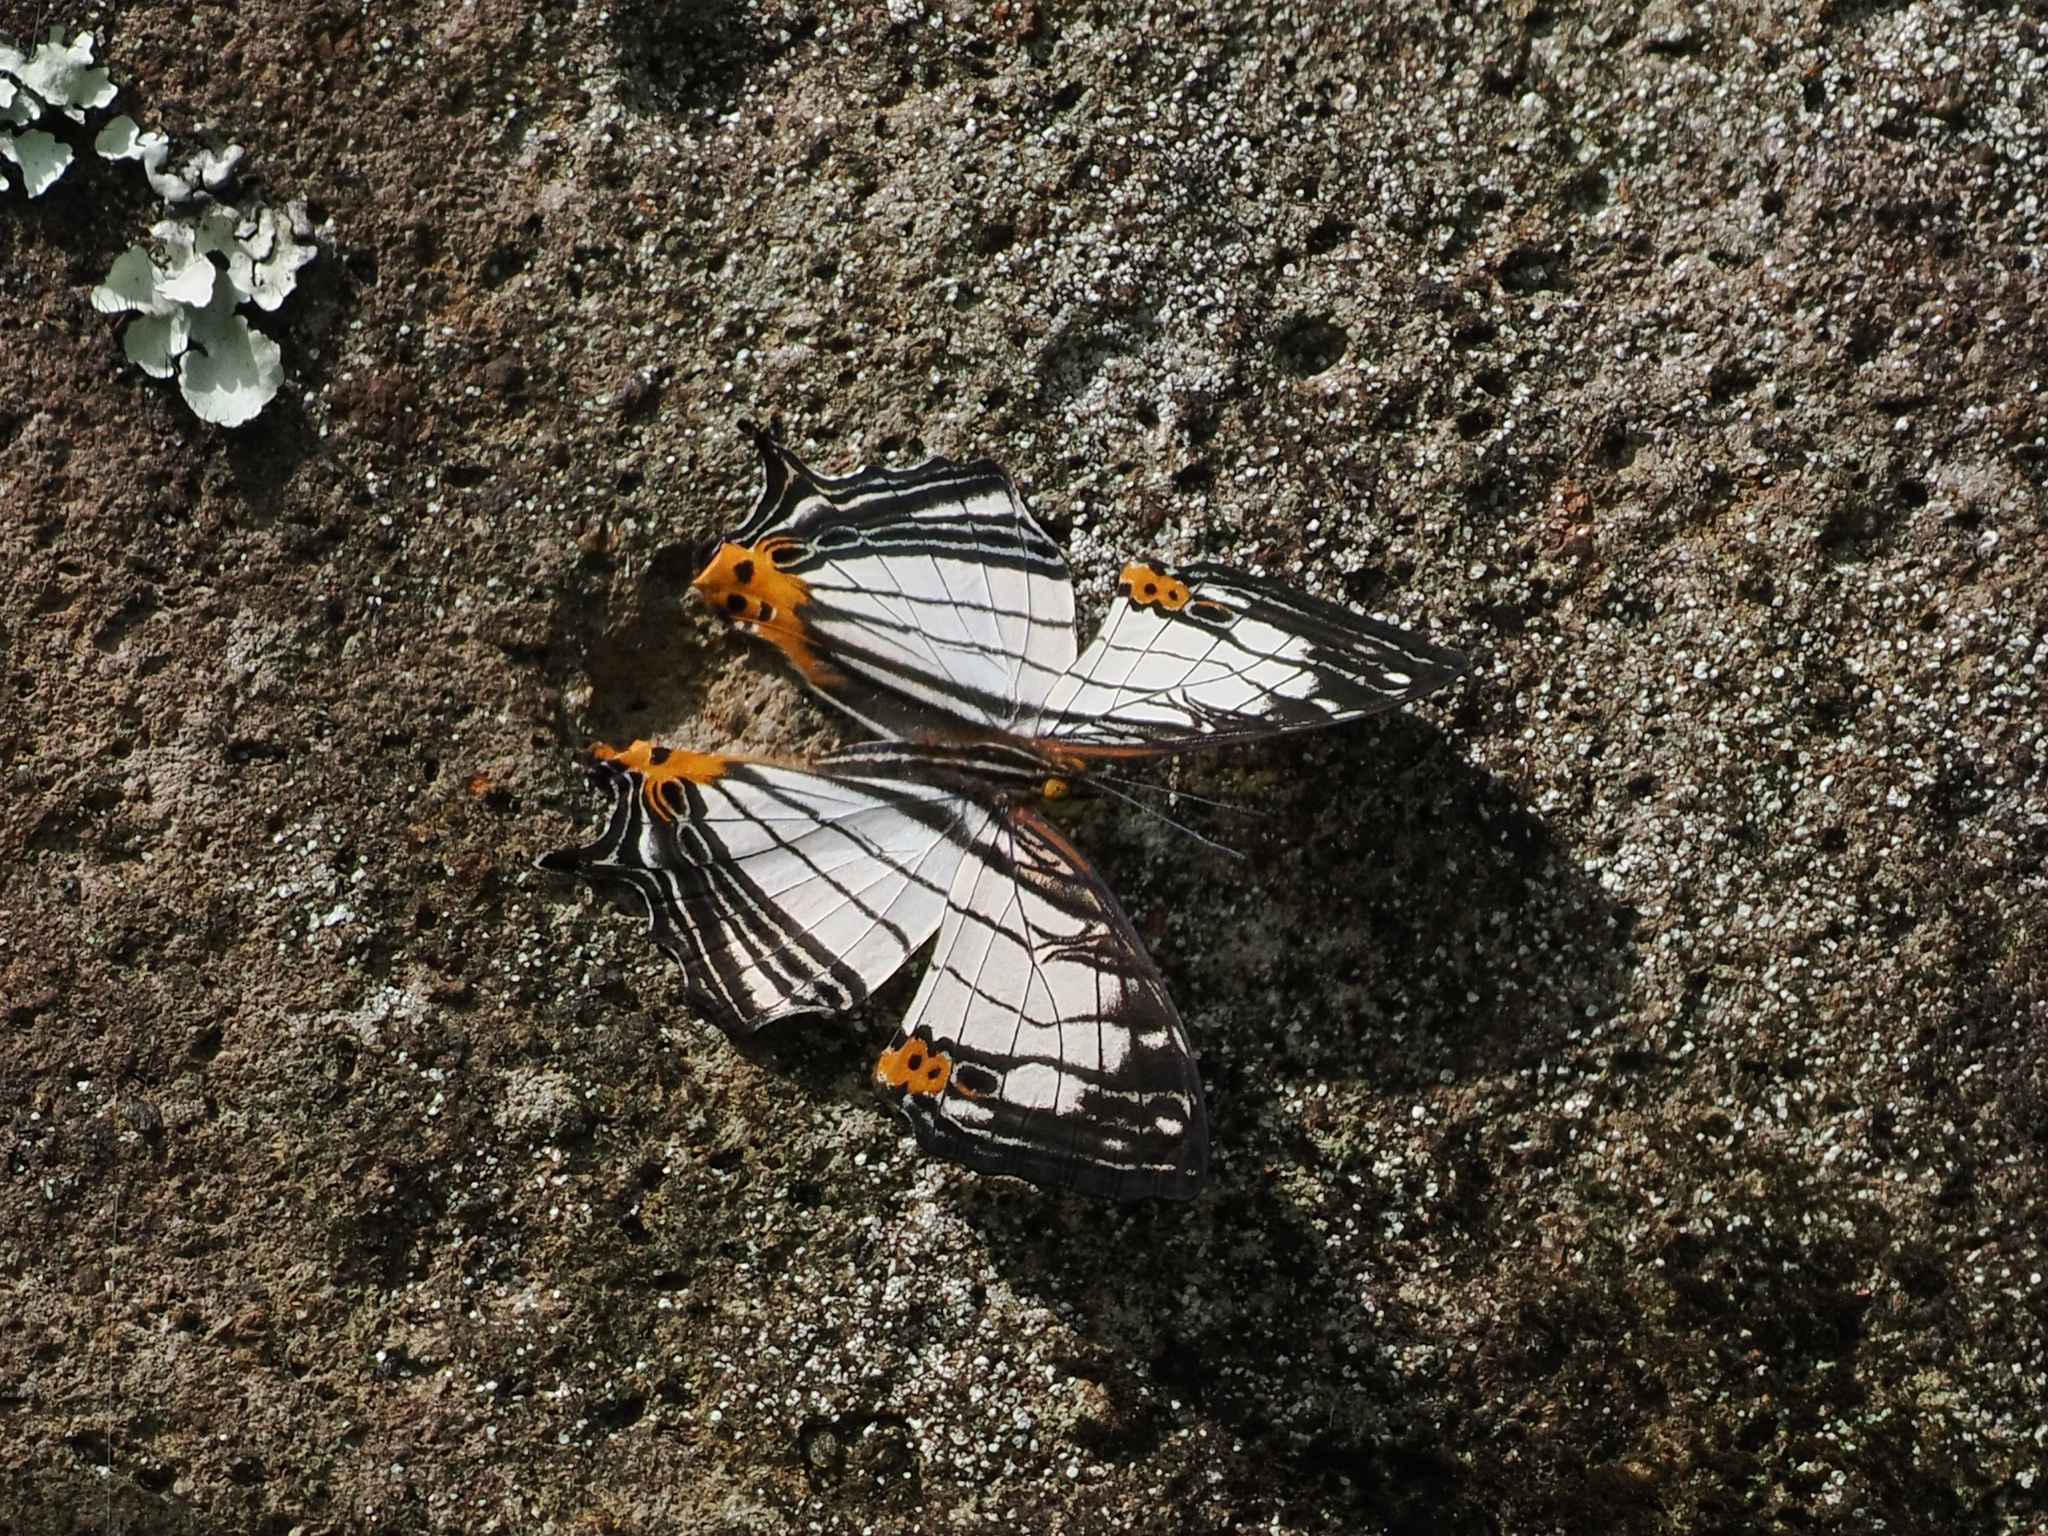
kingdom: Animalia
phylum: Arthropoda
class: Insecta
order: Lepidoptera
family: Nymphalidae
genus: Cyrestis
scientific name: Cyrestis maenalis
